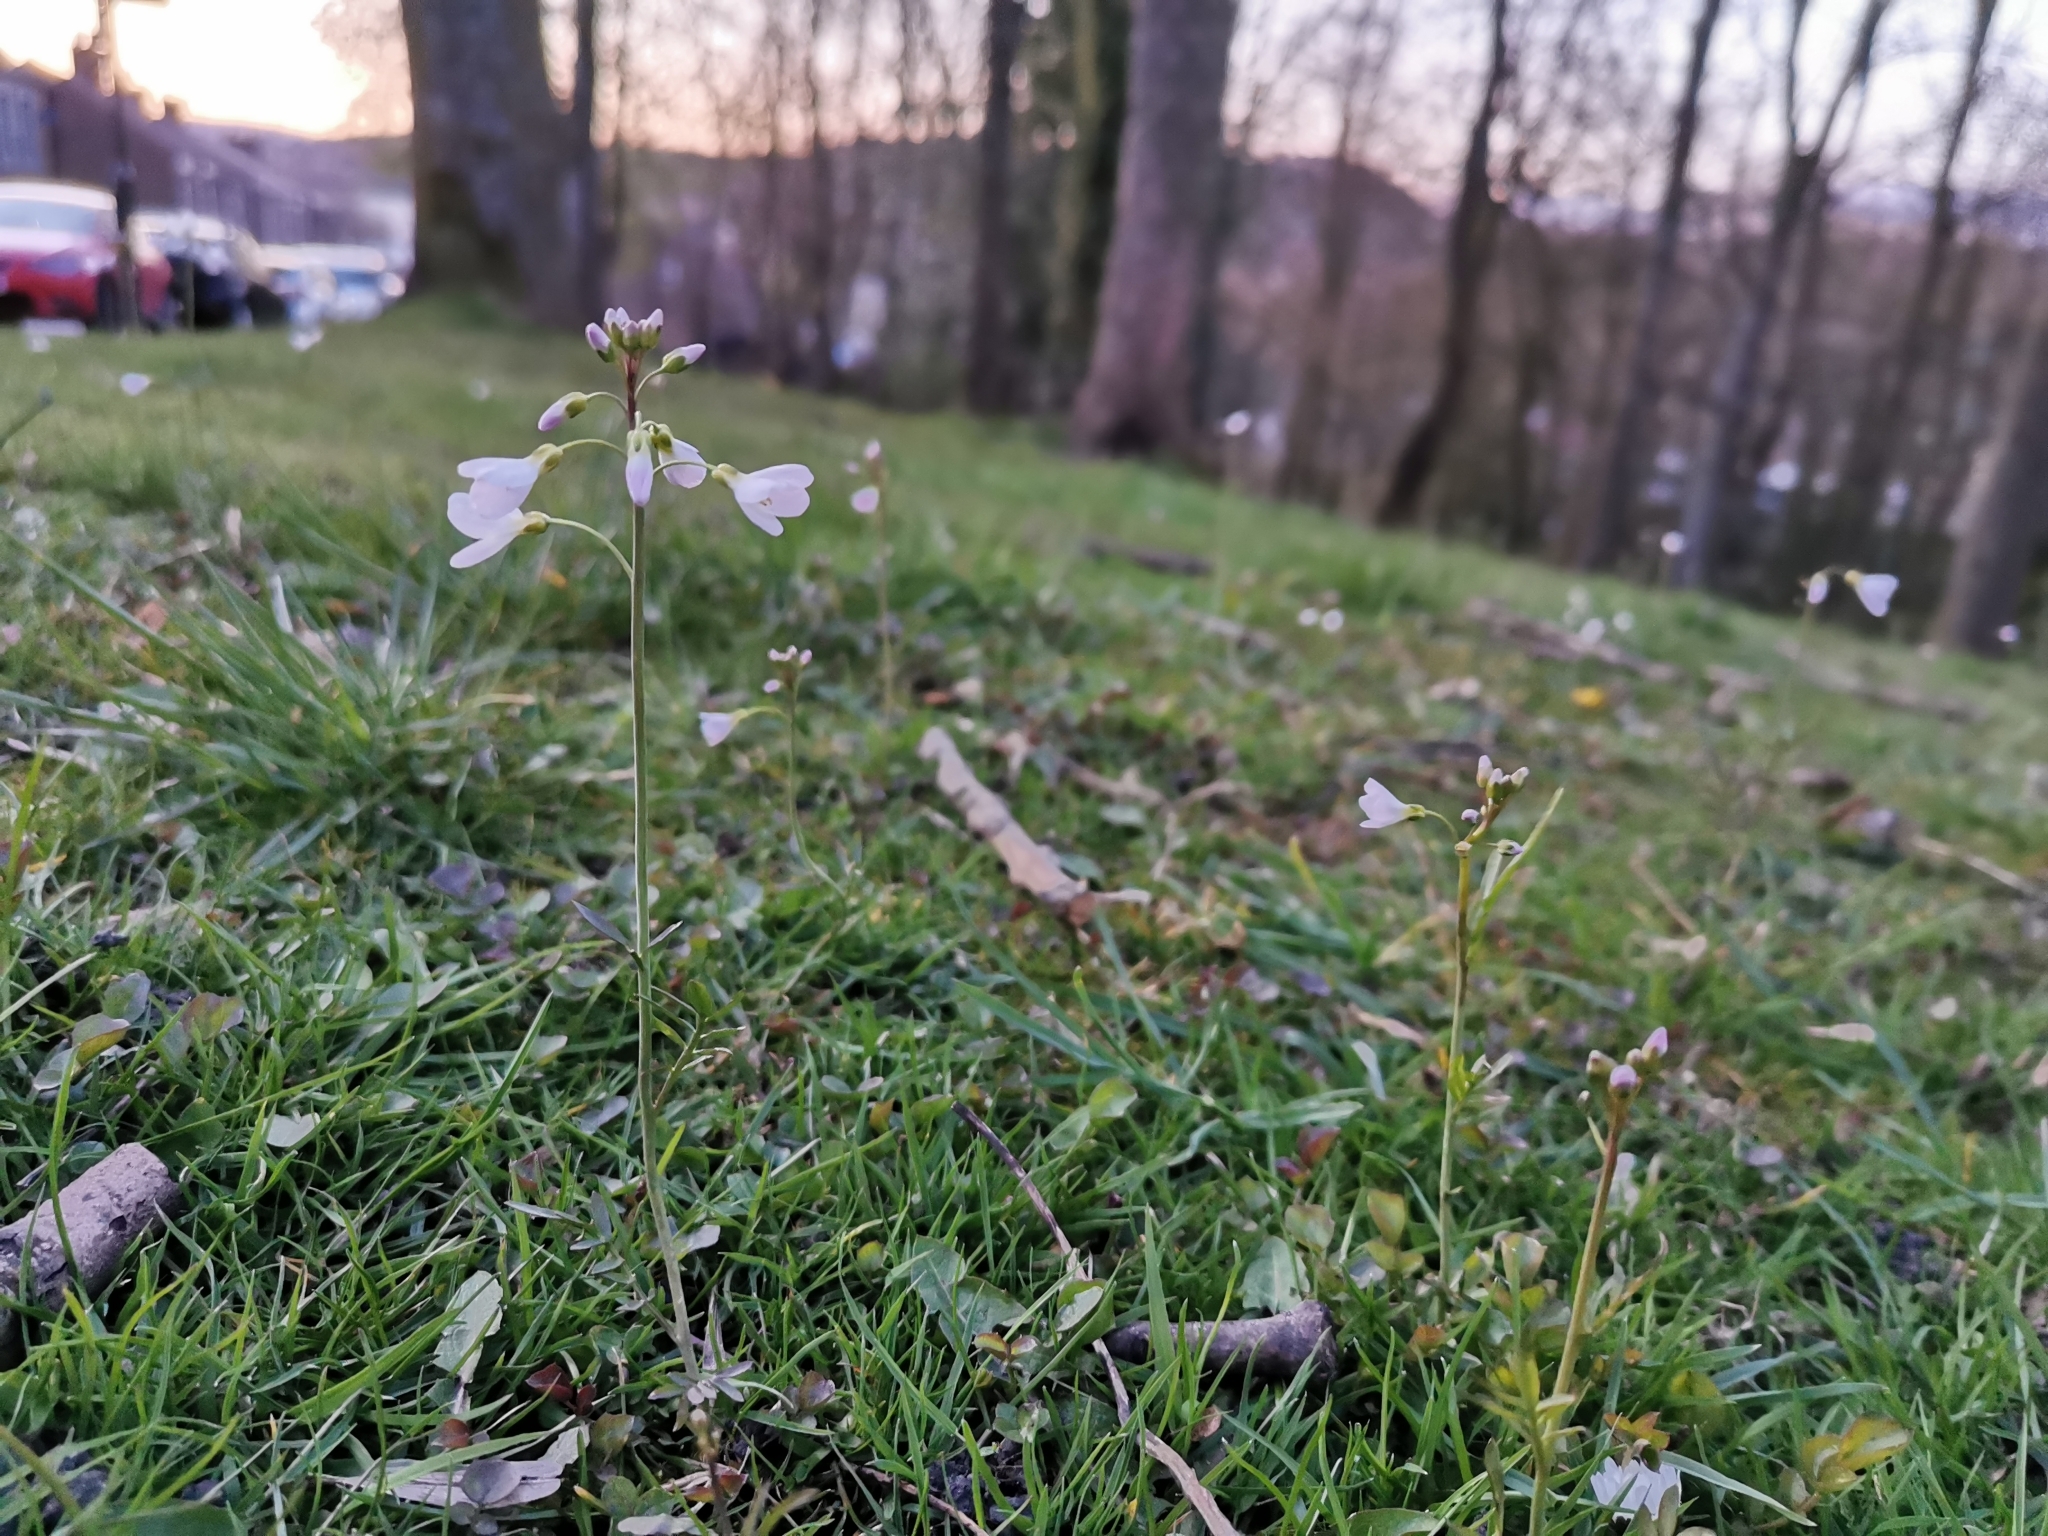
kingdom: Plantae
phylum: Tracheophyta
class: Magnoliopsida
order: Brassicales
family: Brassicaceae
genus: Cardamine
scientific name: Cardamine pratensis
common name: Cuckoo flower
